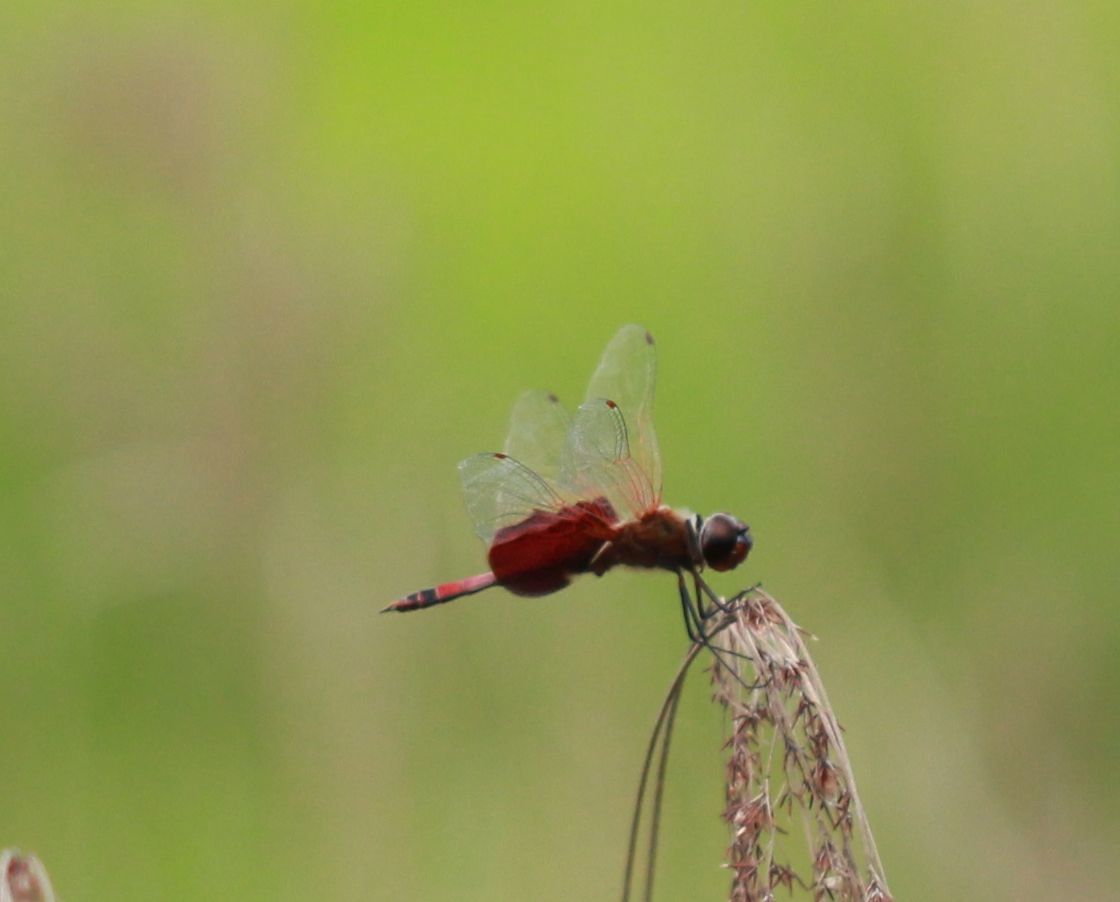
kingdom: Animalia
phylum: Arthropoda
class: Insecta
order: Odonata
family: Libellulidae
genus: Tramea
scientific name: Tramea carolina
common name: Carolina saddlebags
